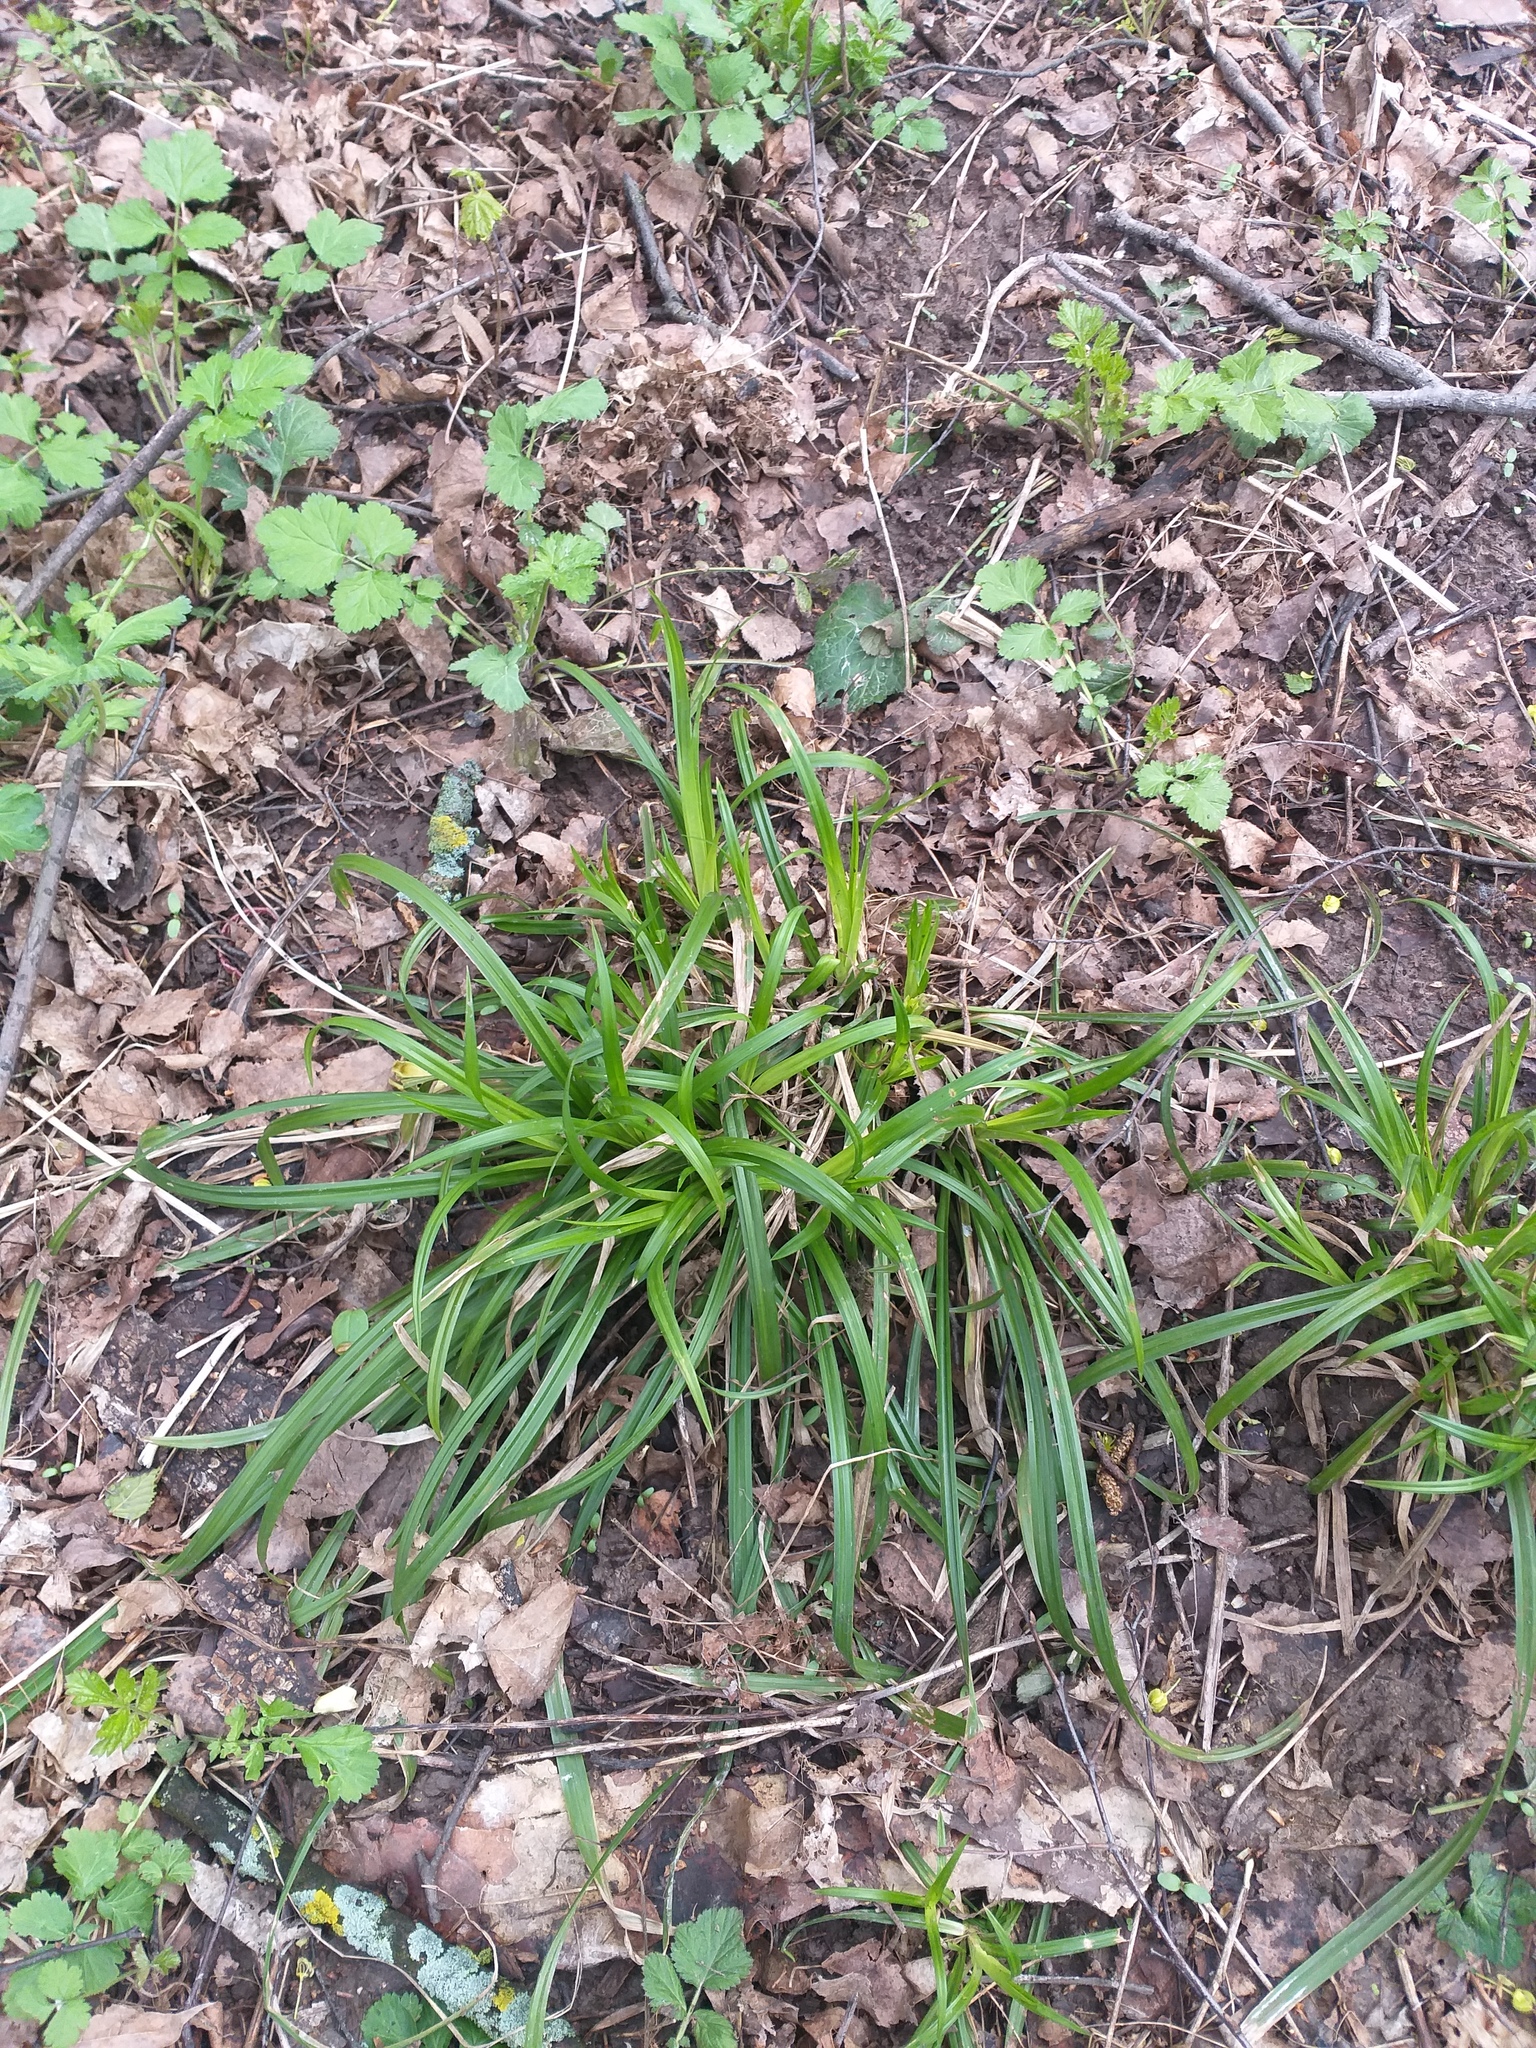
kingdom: Plantae
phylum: Tracheophyta
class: Liliopsida
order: Poales
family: Cyperaceae
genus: Carex
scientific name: Carex sylvatica
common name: Wood-sedge
